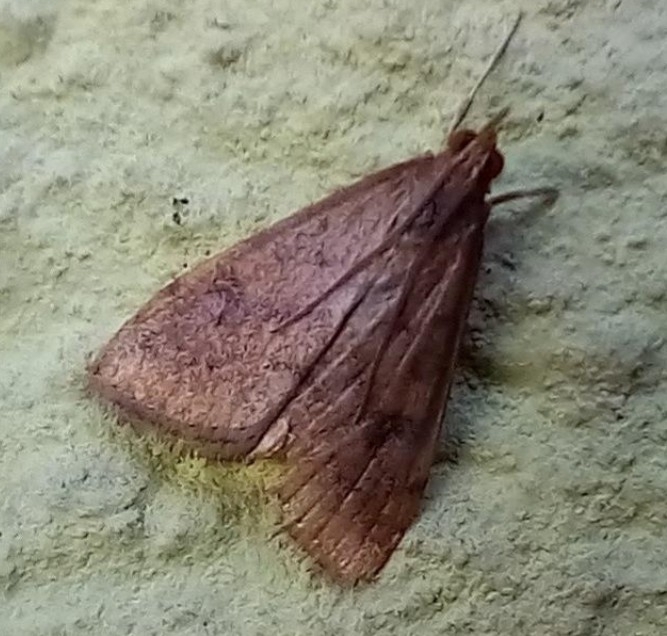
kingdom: Animalia
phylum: Arthropoda
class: Insecta
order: Lepidoptera
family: Crambidae
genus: Udea
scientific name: Udea ferrugalis
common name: Rusty dot
